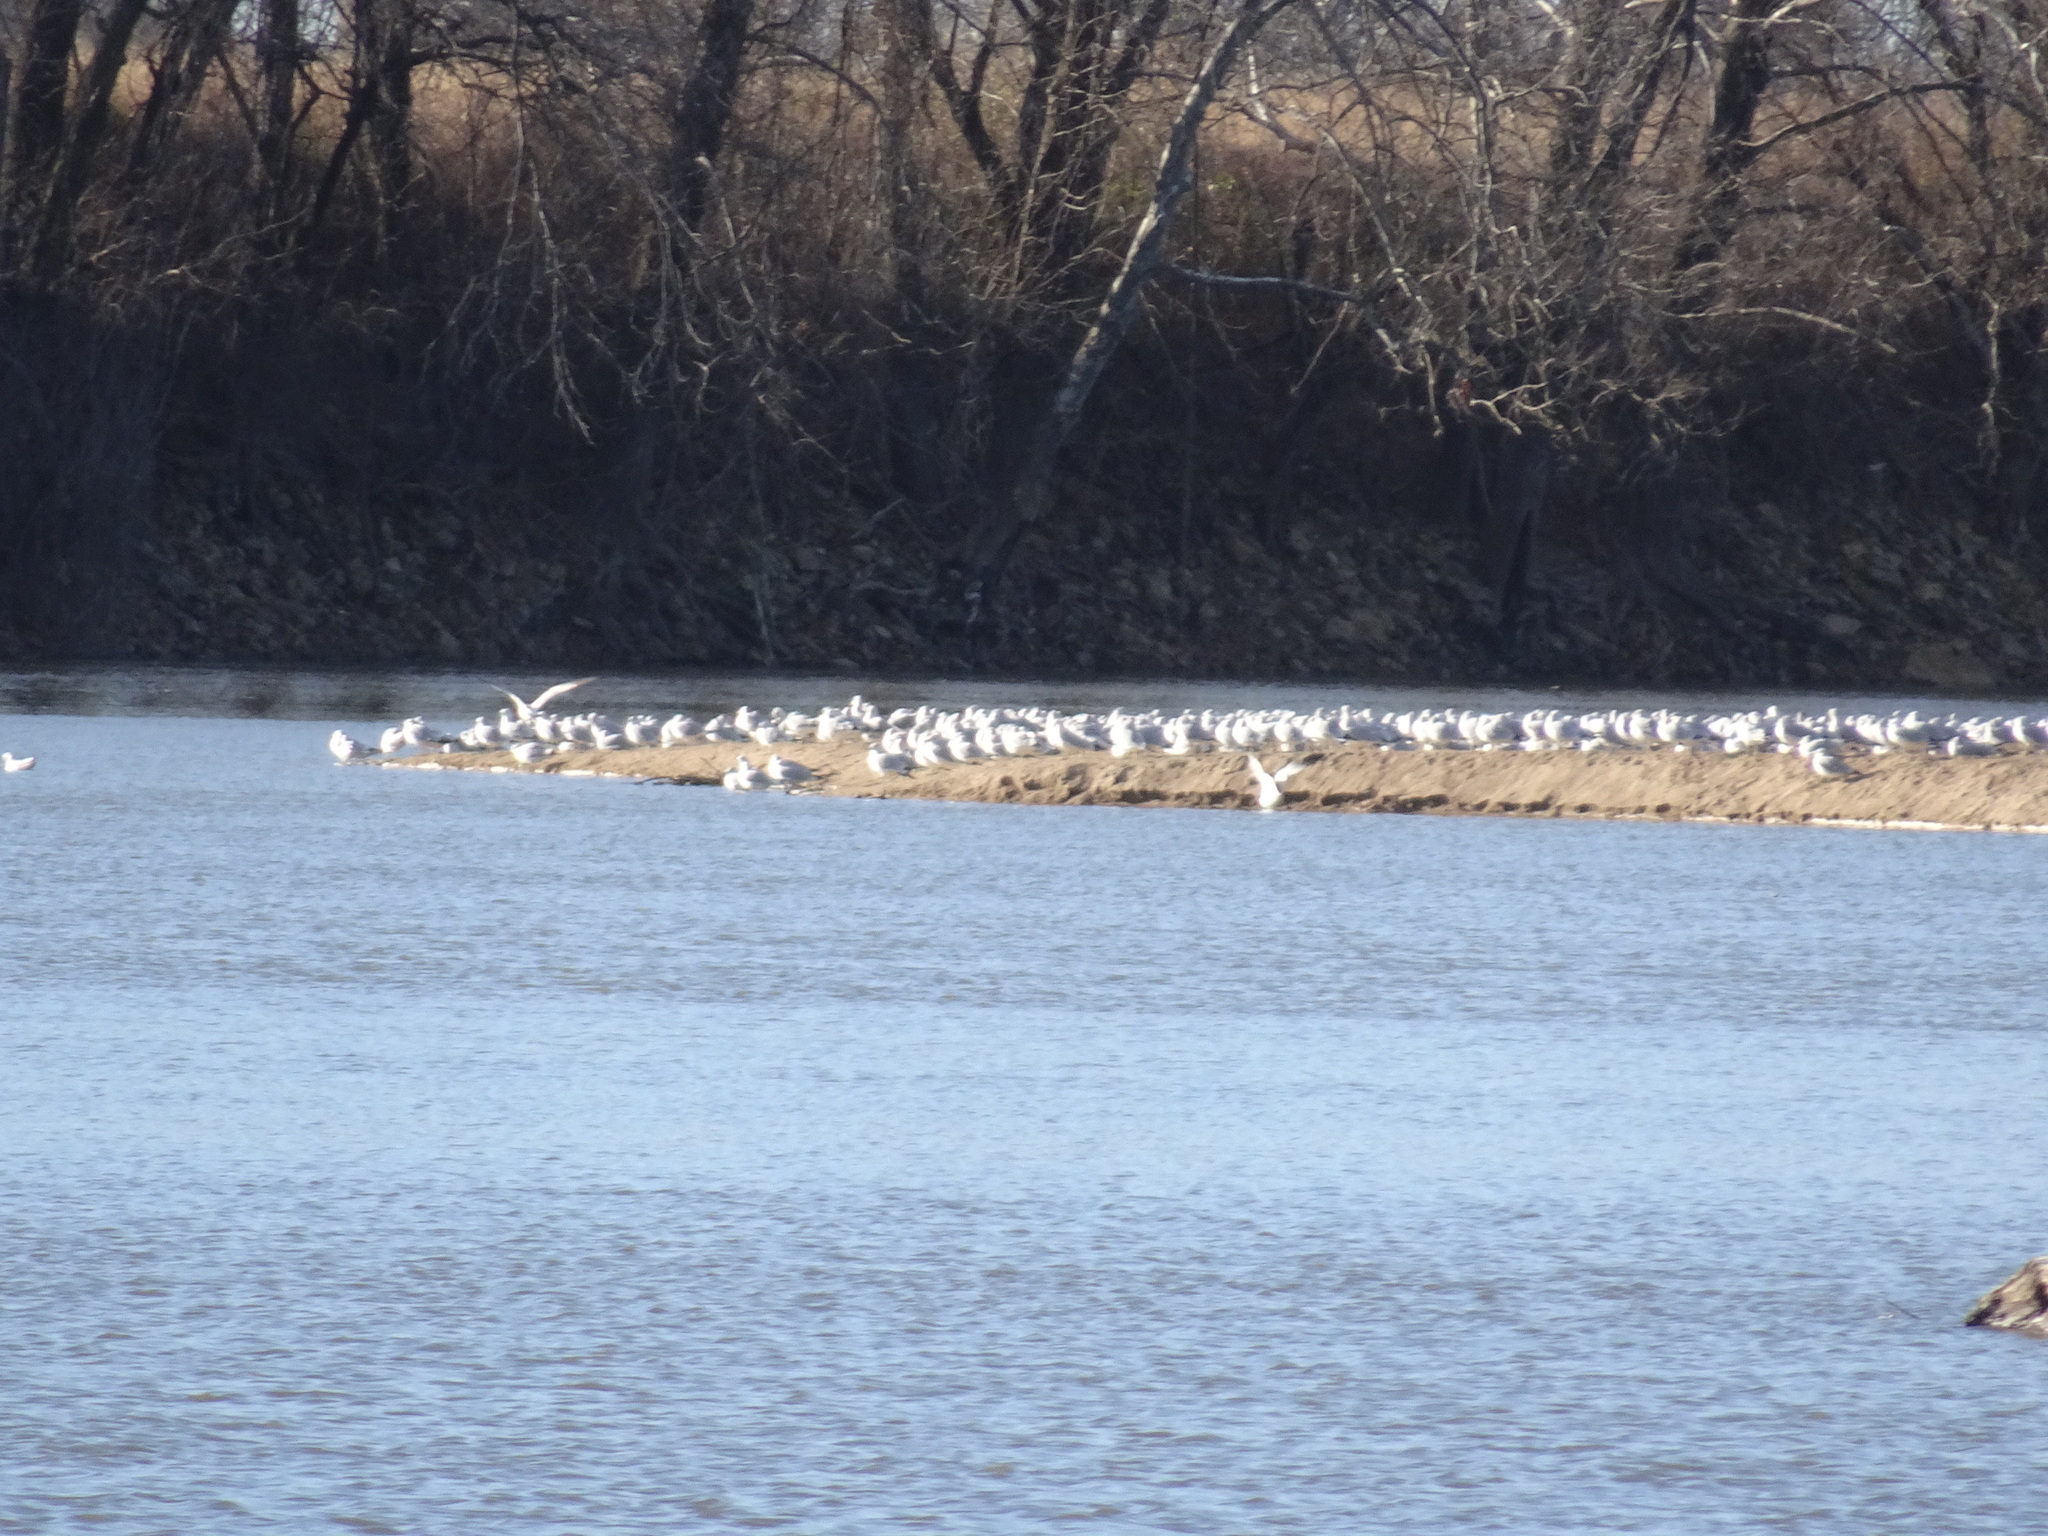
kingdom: Animalia
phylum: Chordata
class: Aves
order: Charadriiformes
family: Laridae
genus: Larus
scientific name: Larus delawarensis
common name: Ring-billed gull
